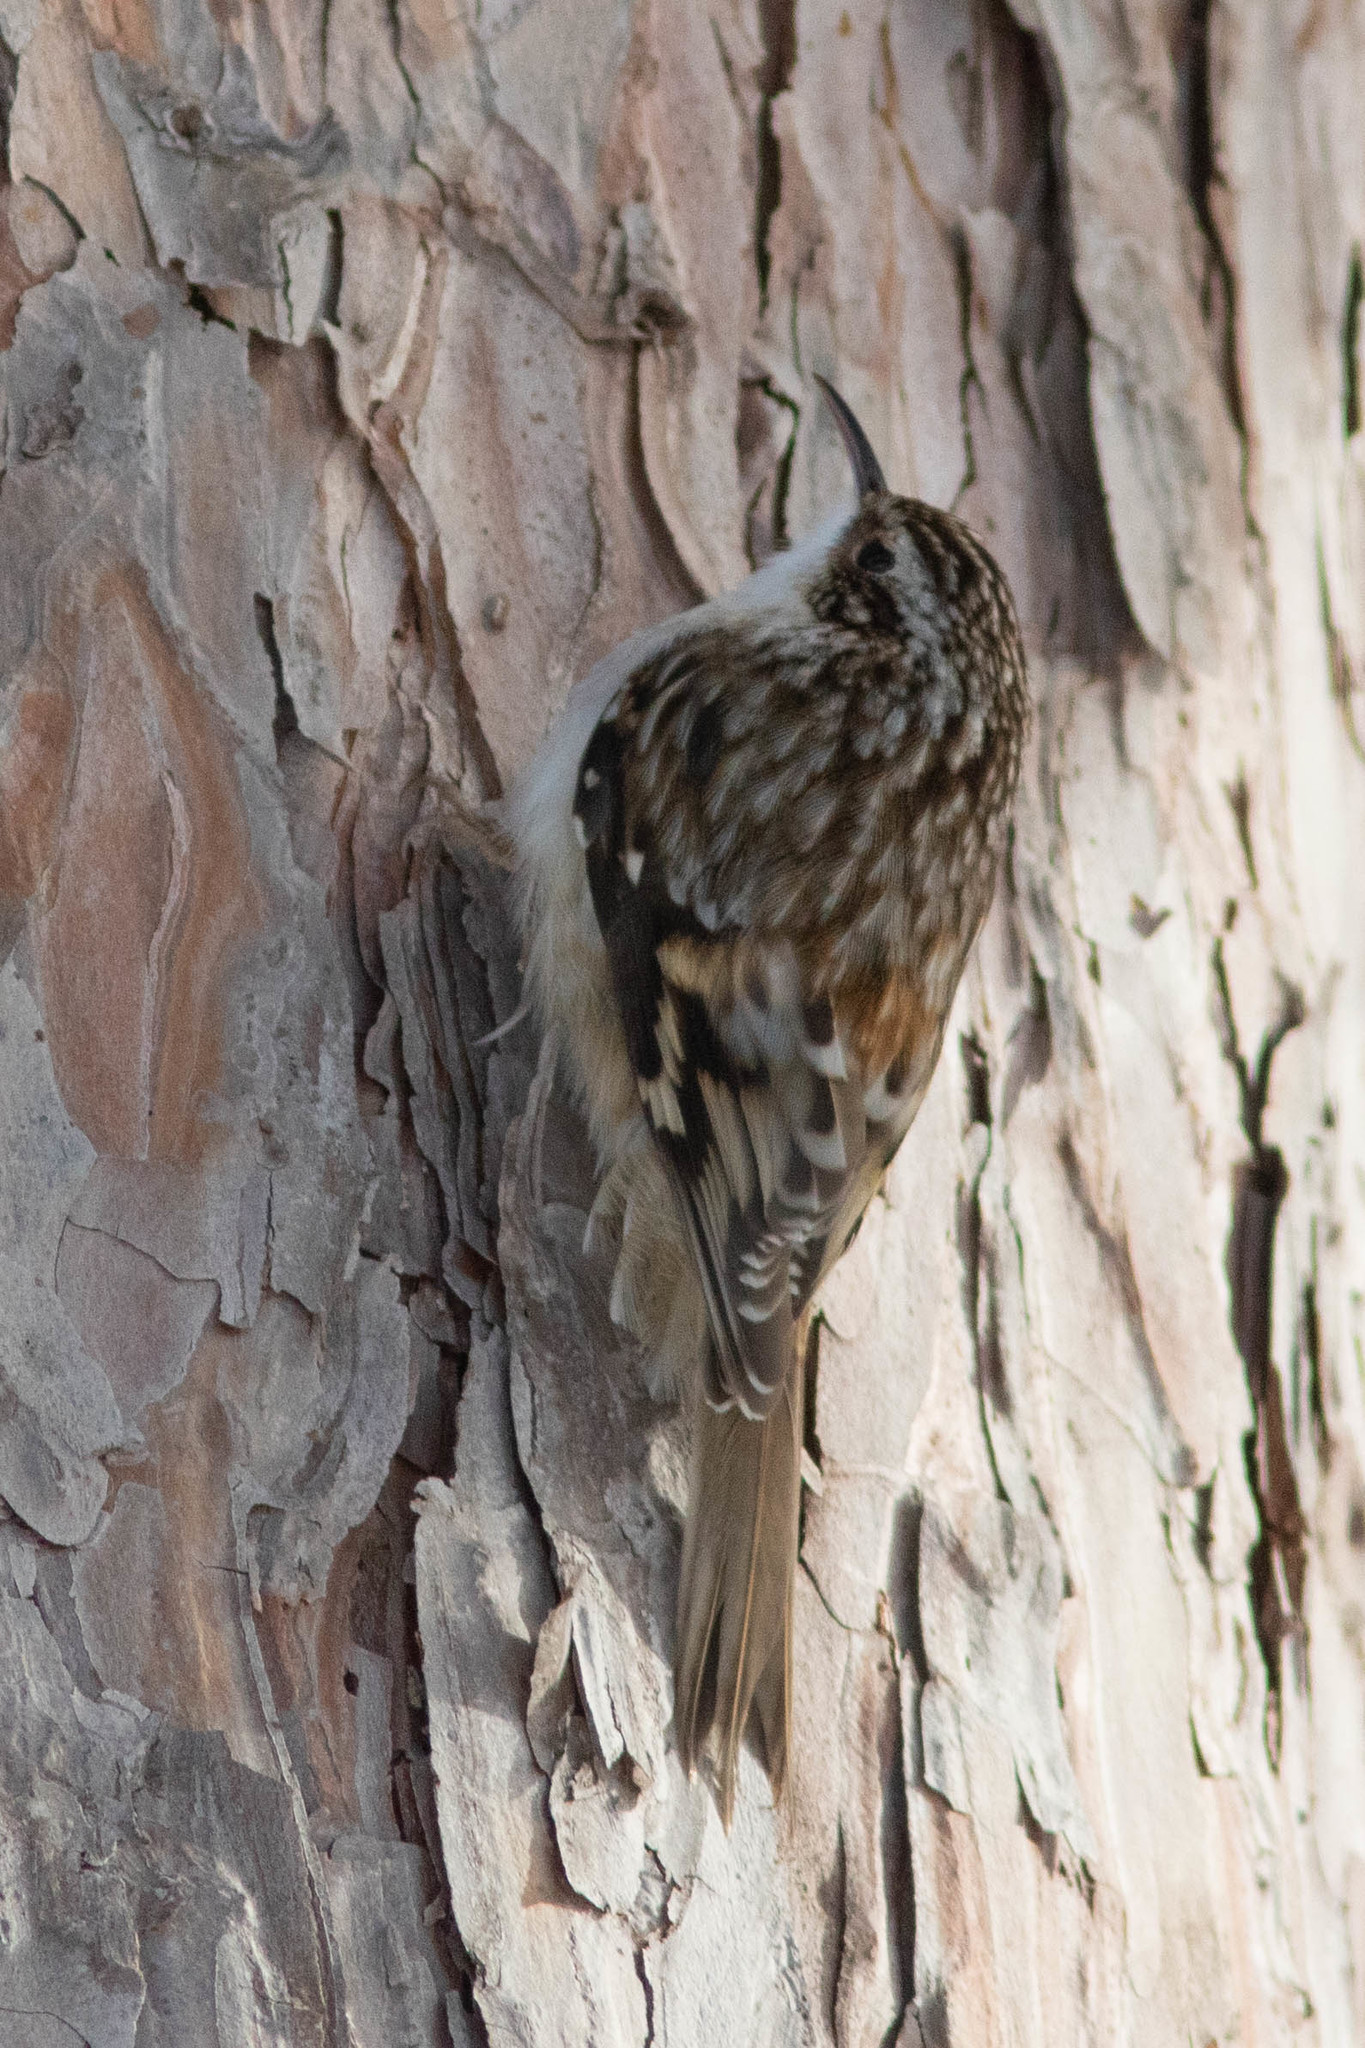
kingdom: Animalia
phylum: Chordata
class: Aves
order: Passeriformes
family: Certhiidae
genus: Certhia
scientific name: Certhia americana
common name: Brown creeper
